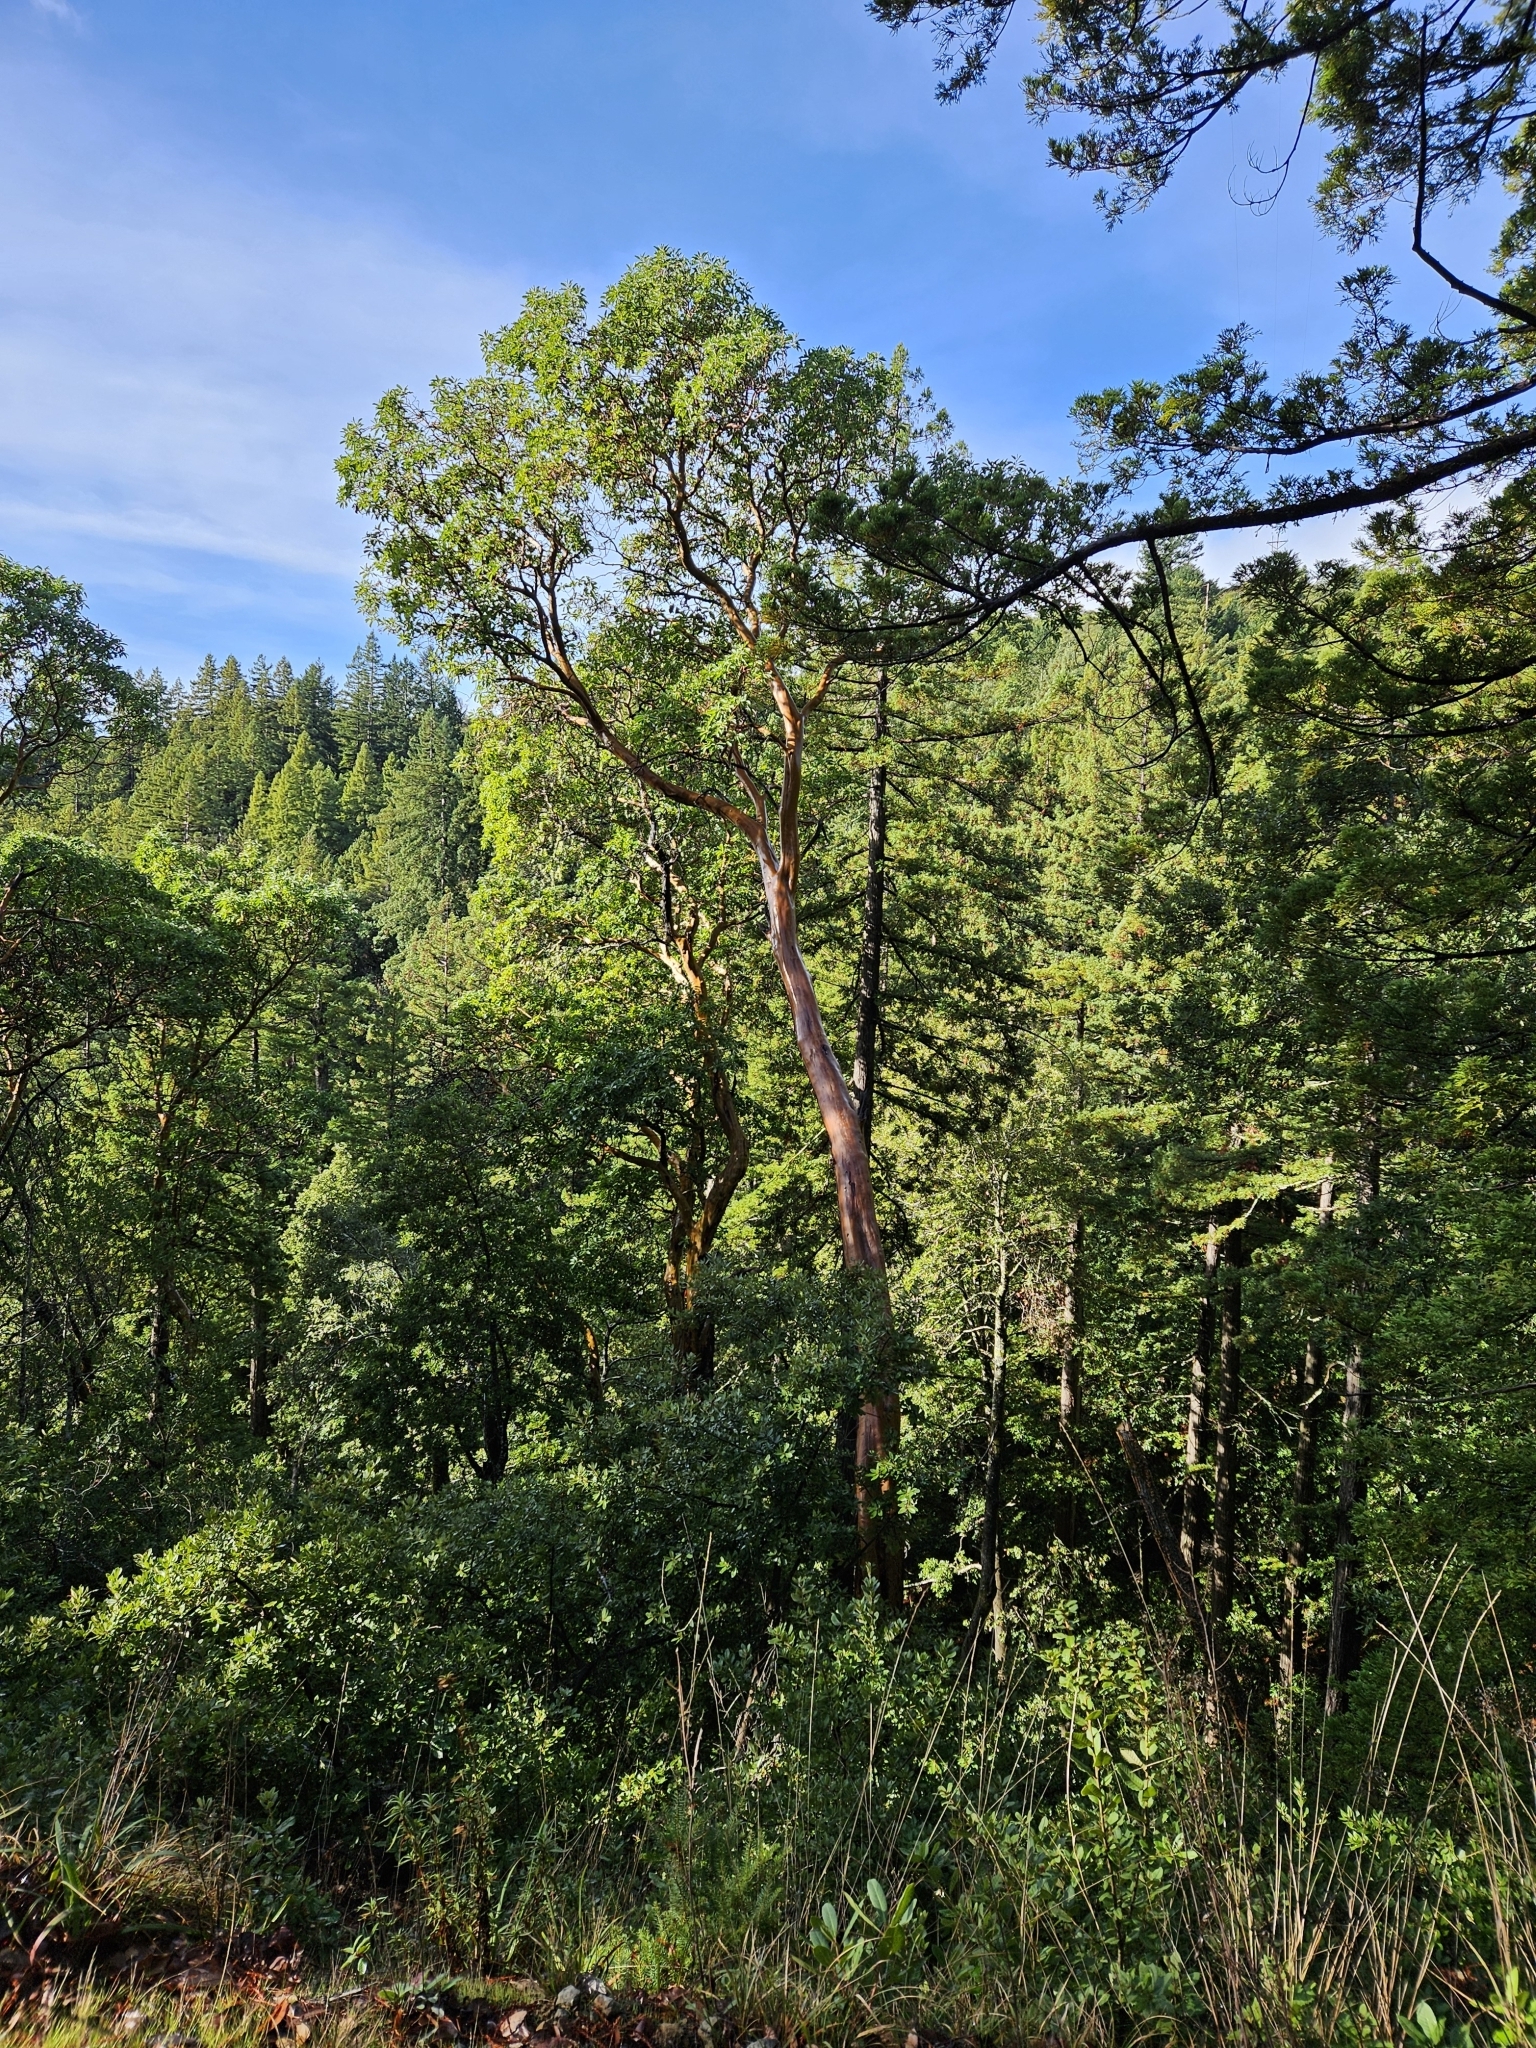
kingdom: Plantae
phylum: Tracheophyta
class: Magnoliopsida
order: Ericales
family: Ericaceae
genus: Arbutus
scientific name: Arbutus menziesii
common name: Pacific madrone
